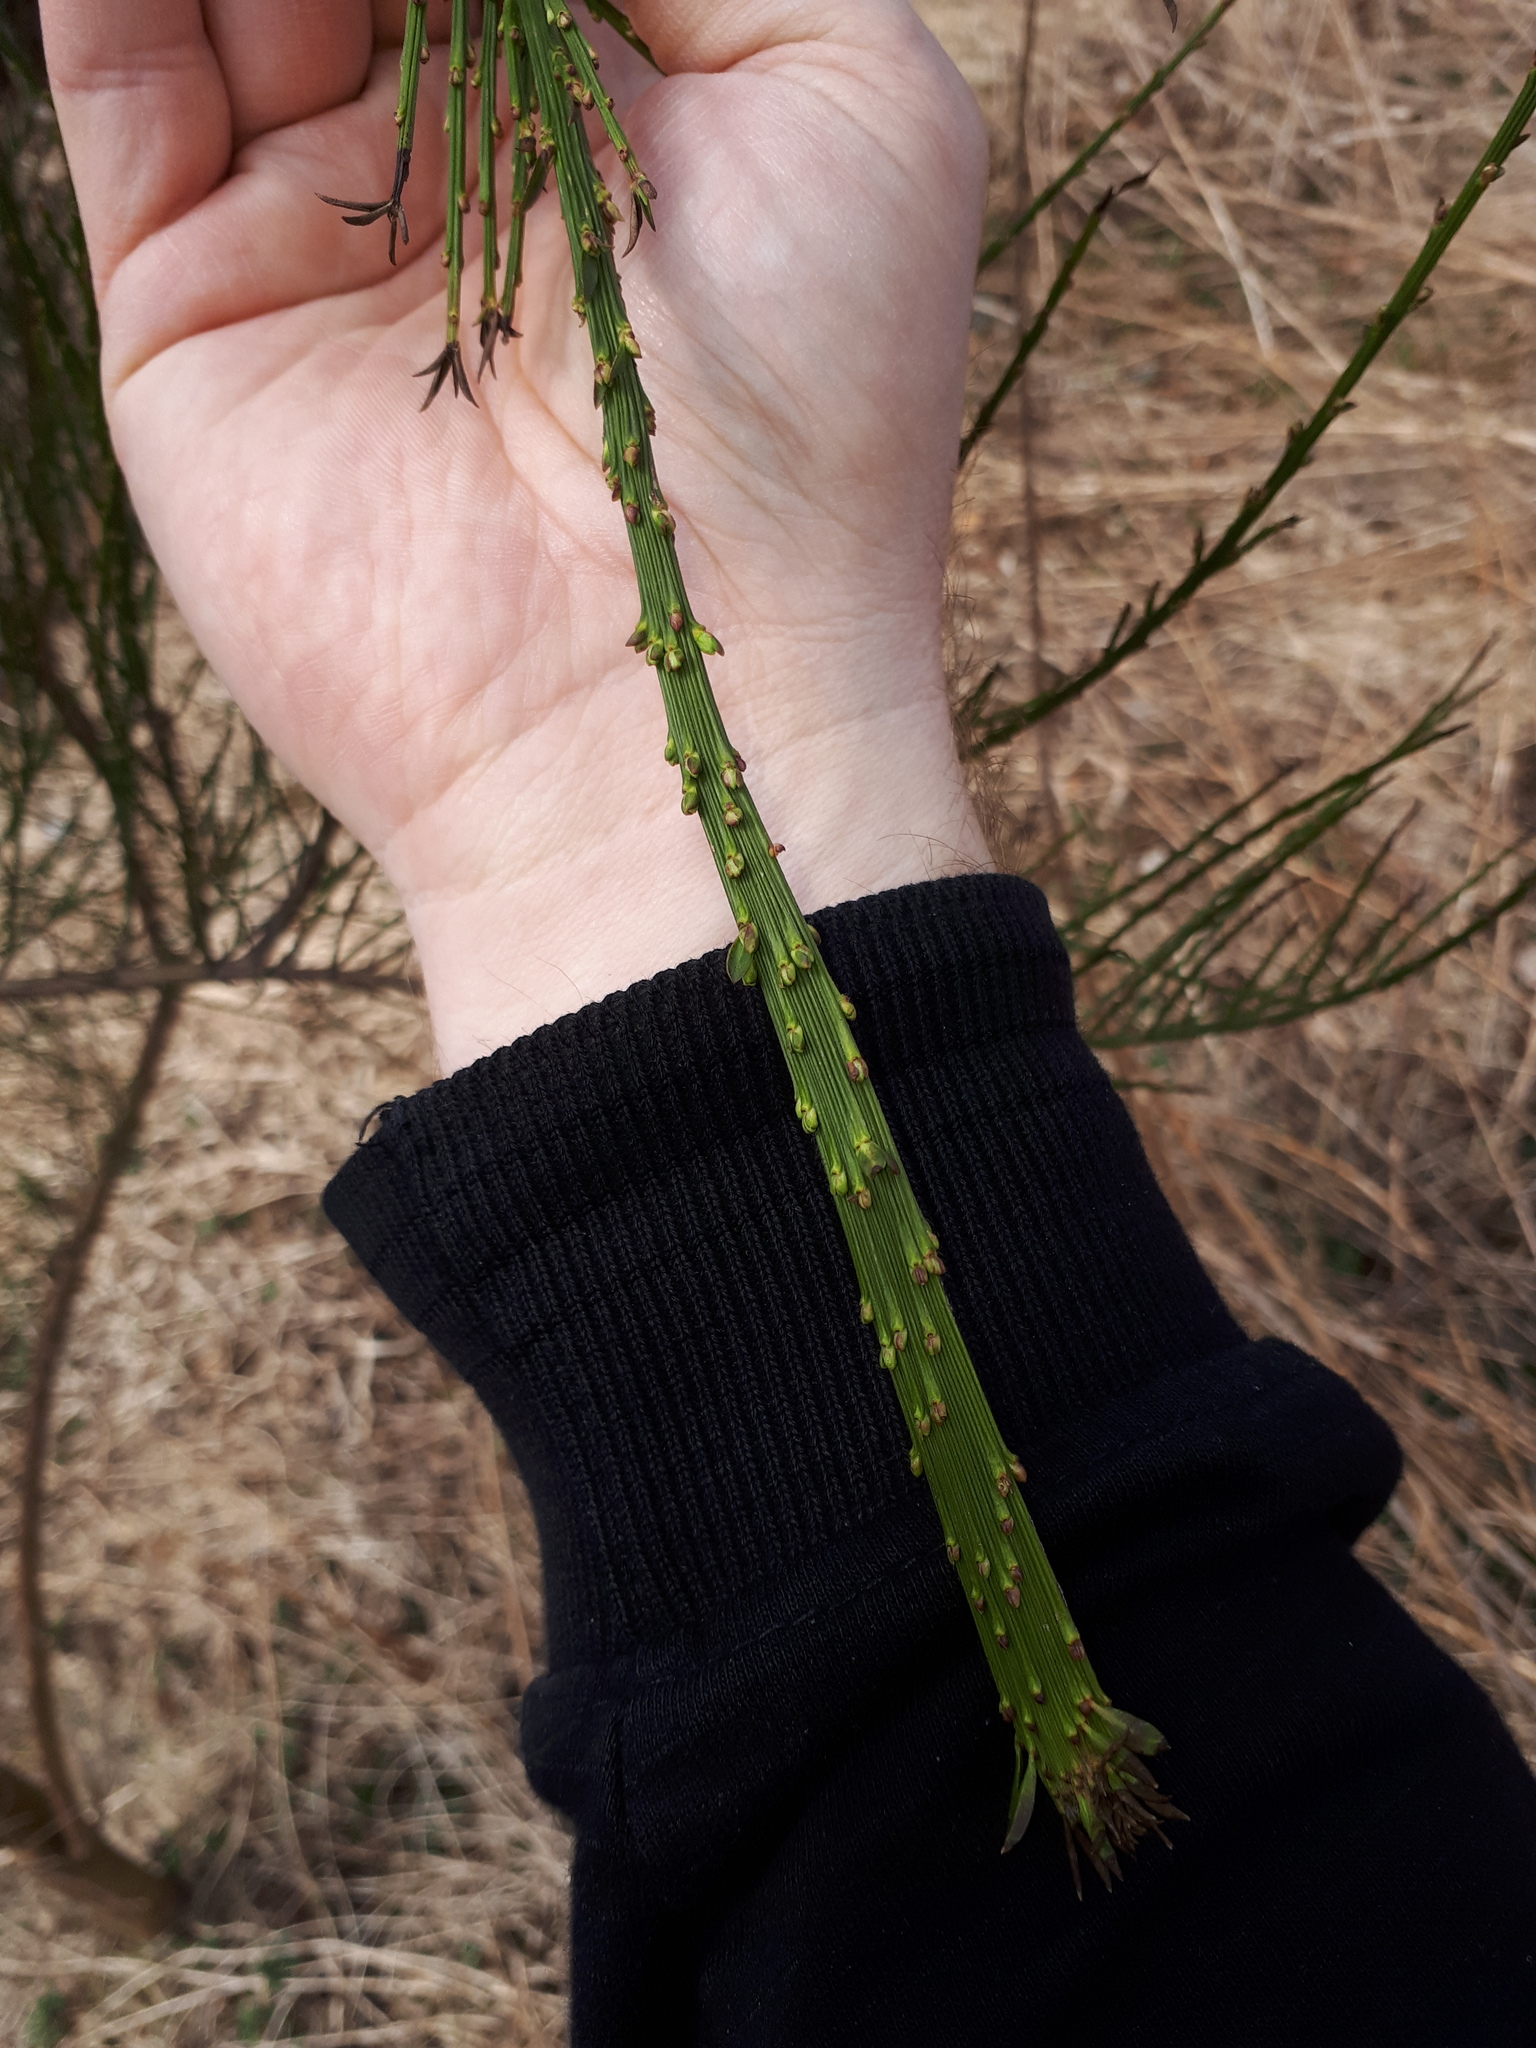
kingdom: Plantae
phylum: Tracheophyta
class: Magnoliopsida
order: Fabales
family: Fabaceae
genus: Cytisus
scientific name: Cytisus scoparius
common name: Scotch broom
